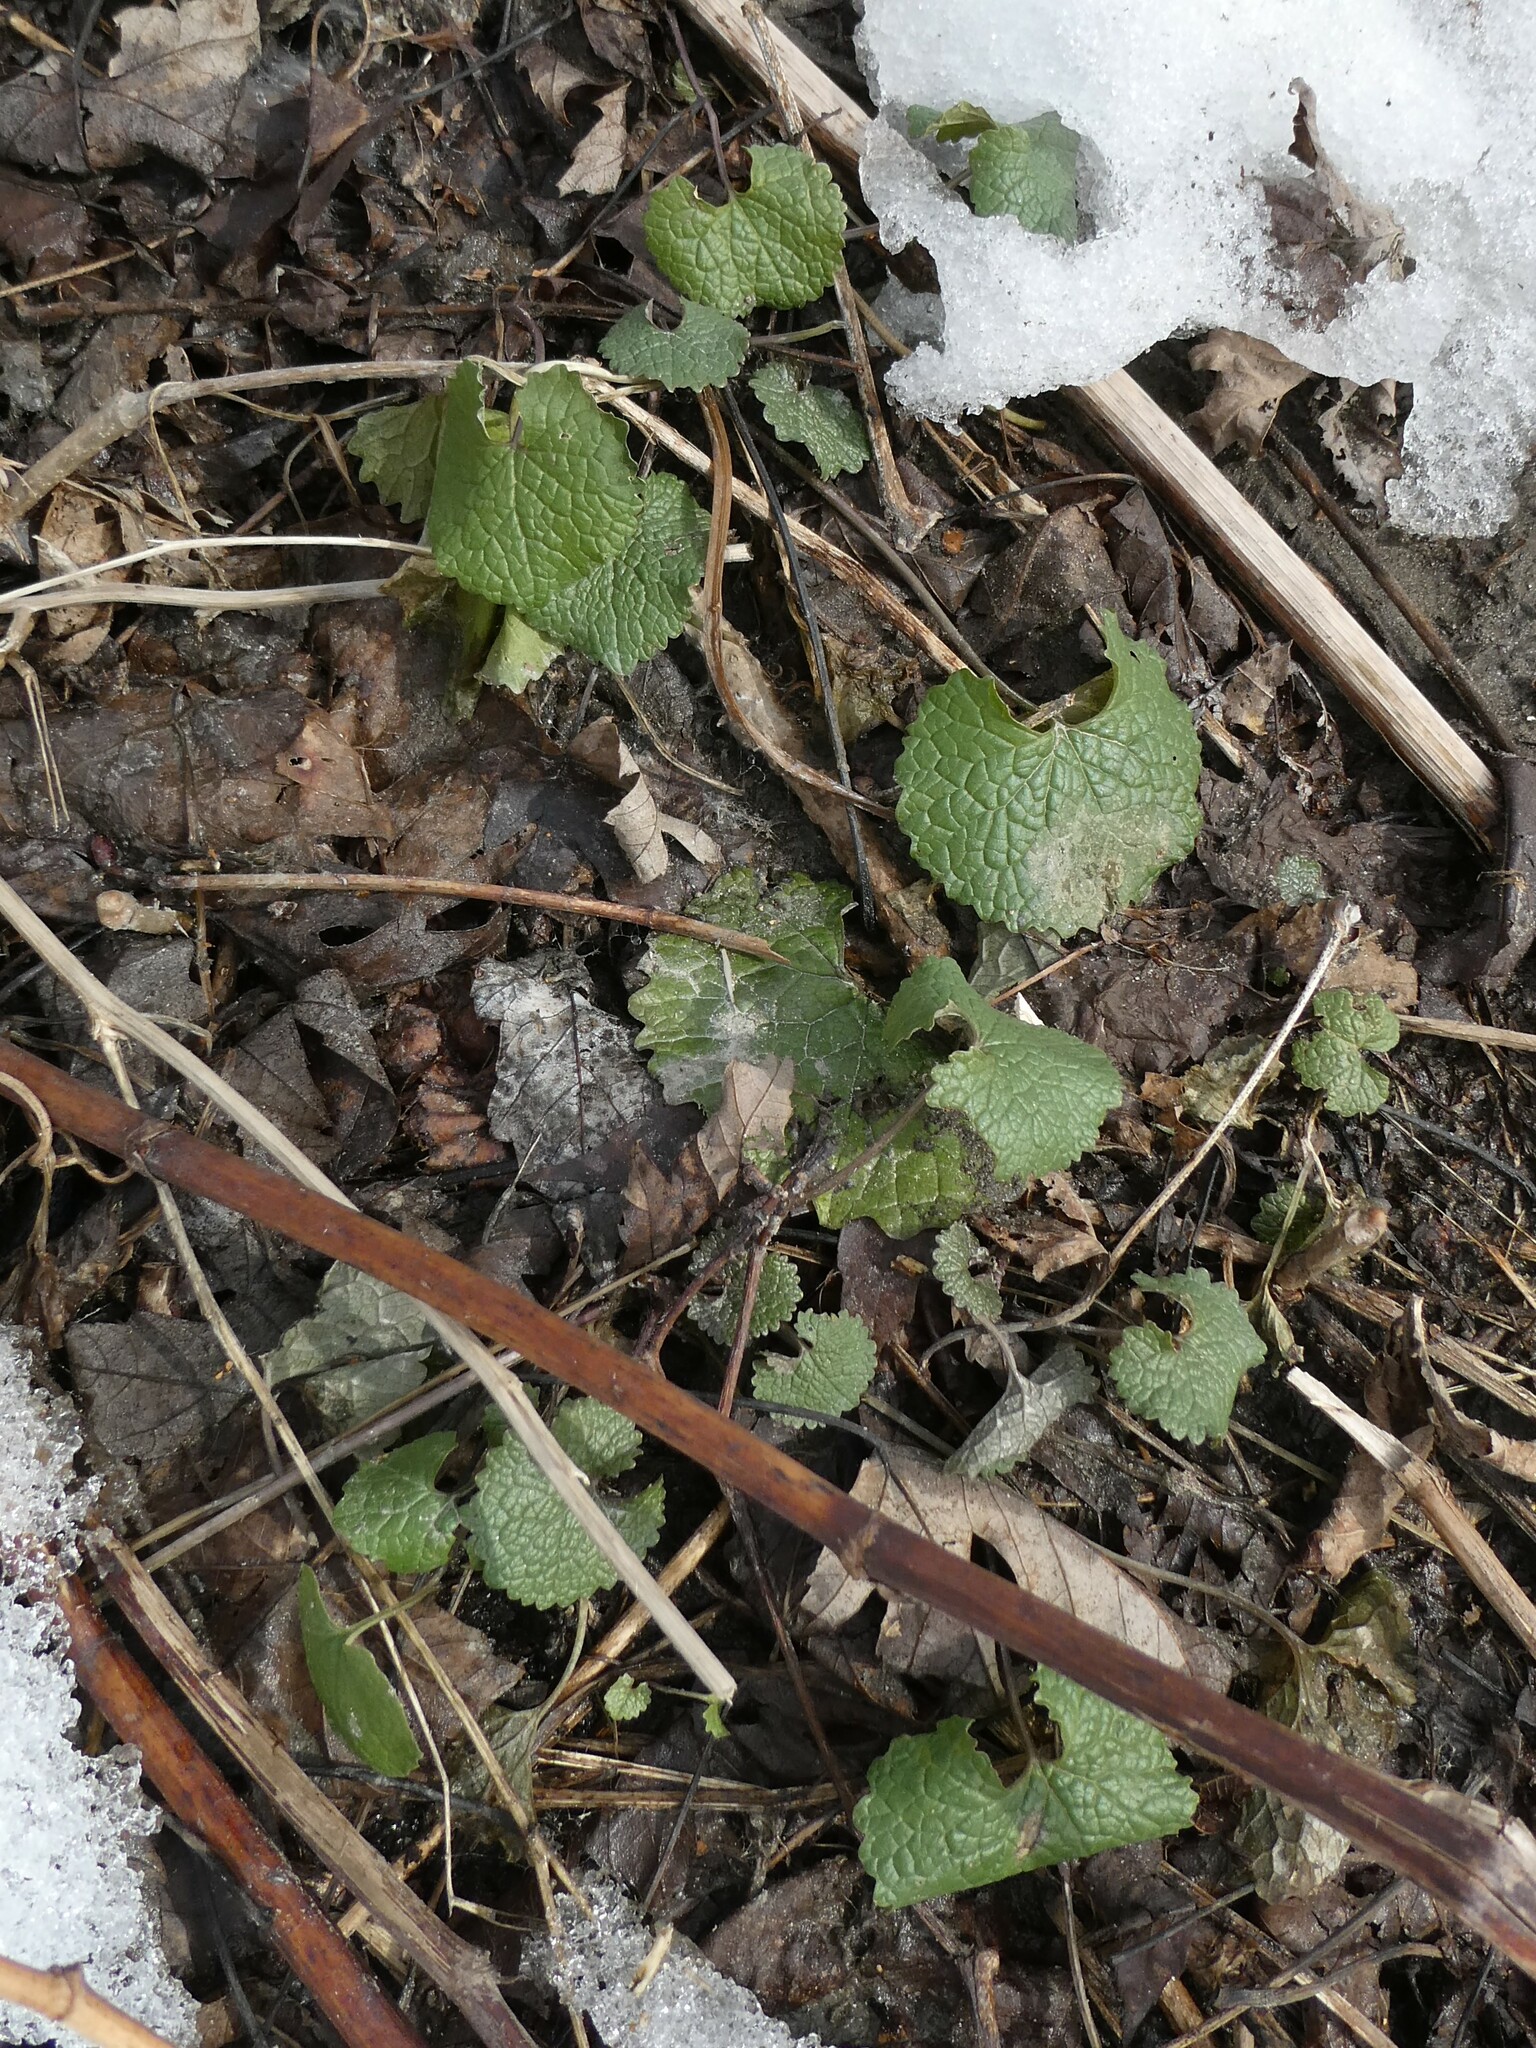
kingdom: Plantae
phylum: Tracheophyta
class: Magnoliopsida
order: Brassicales
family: Brassicaceae
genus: Alliaria
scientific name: Alliaria petiolata
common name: Garlic mustard
